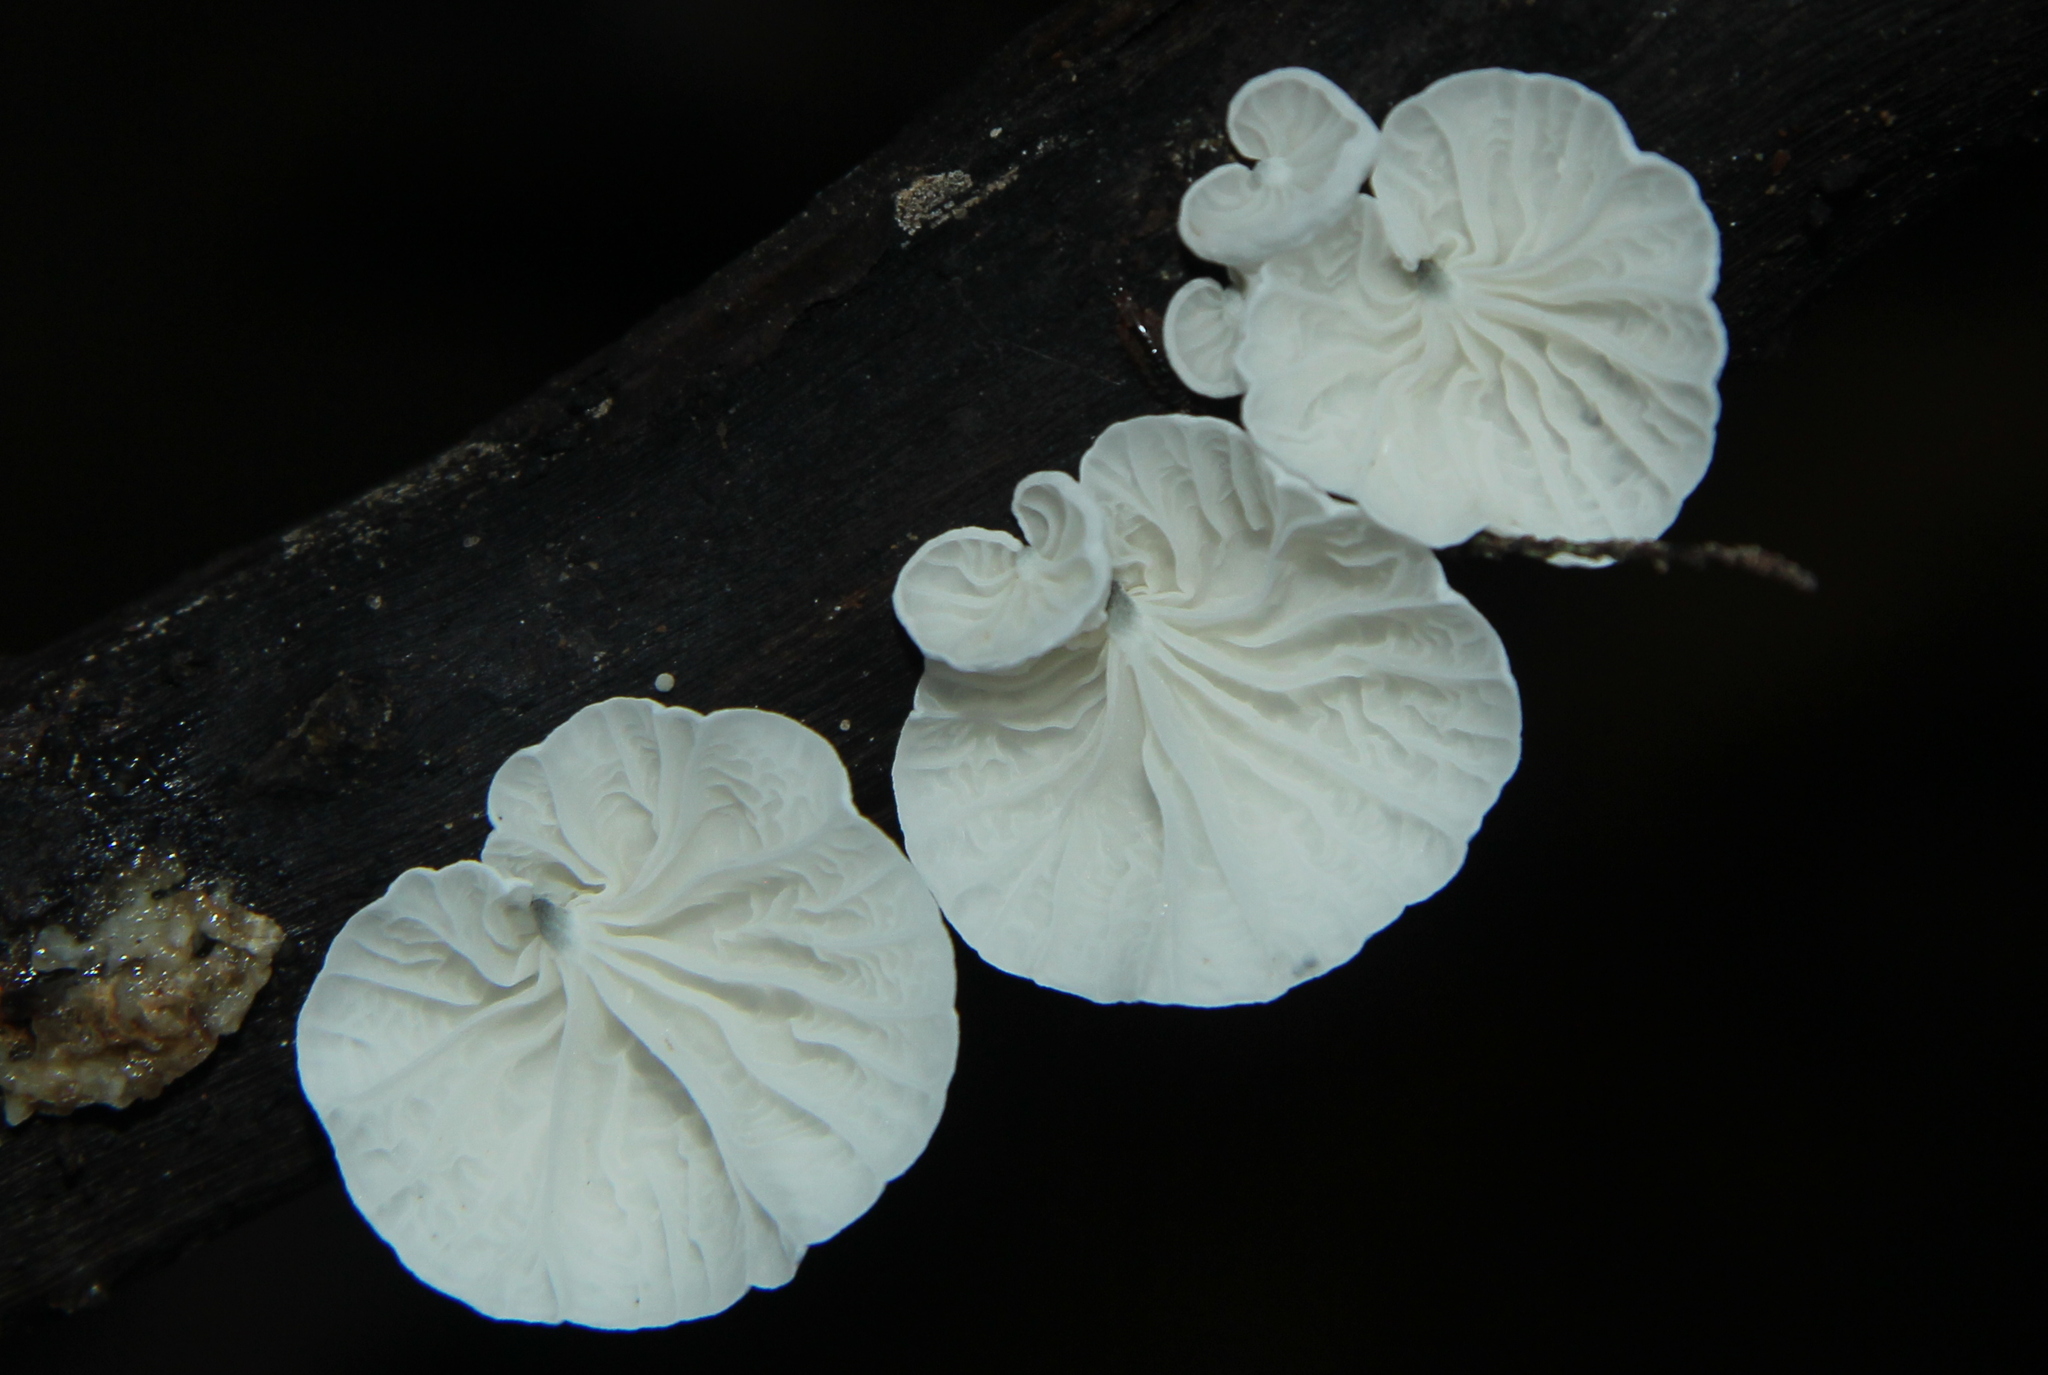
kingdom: Fungi
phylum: Basidiomycota
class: Agaricomycetes
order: Agaricales
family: Marasmiaceae
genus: Campanella
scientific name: Campanella tristis
